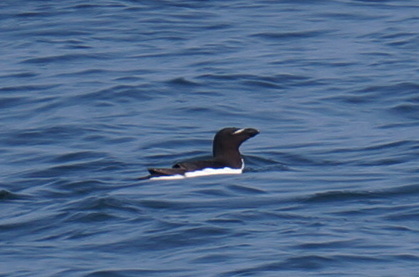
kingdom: Animalia
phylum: Chordata
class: Aves
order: Charadriiformes
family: Alcidae
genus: Alca
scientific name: Alca torda
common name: Razorbill
